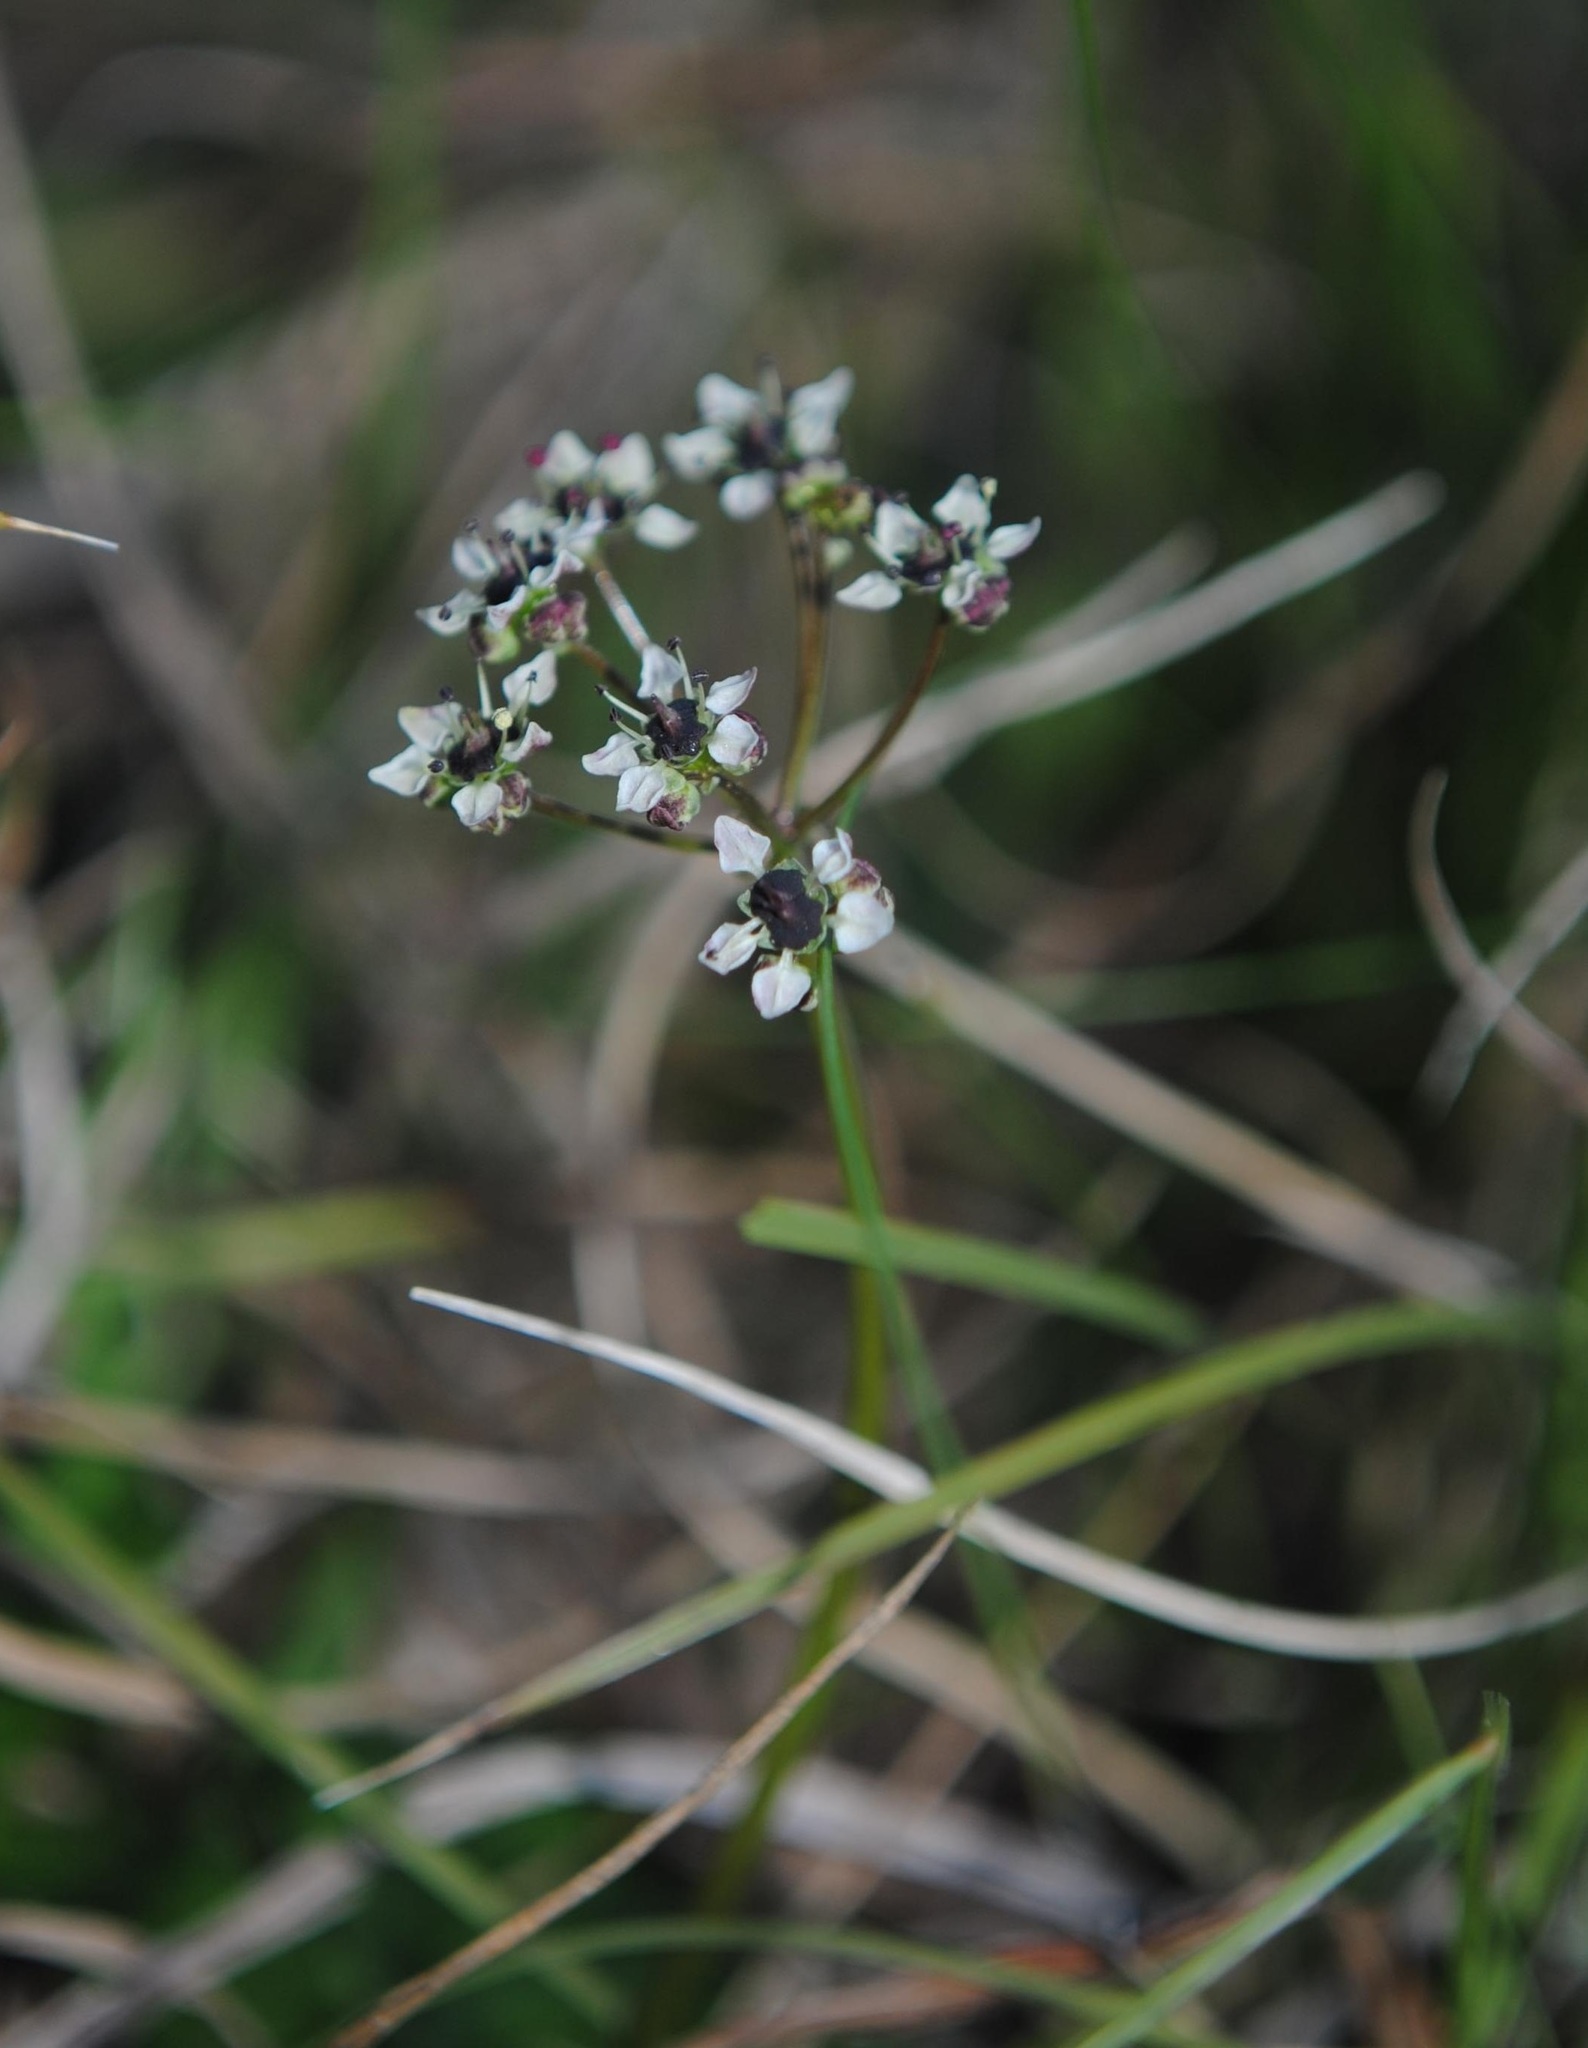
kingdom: Plantae
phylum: Tracheophyta
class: Magnoliopsida
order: Apiales
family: Apiaceae
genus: Diposis
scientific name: Diposis saniculifolia
